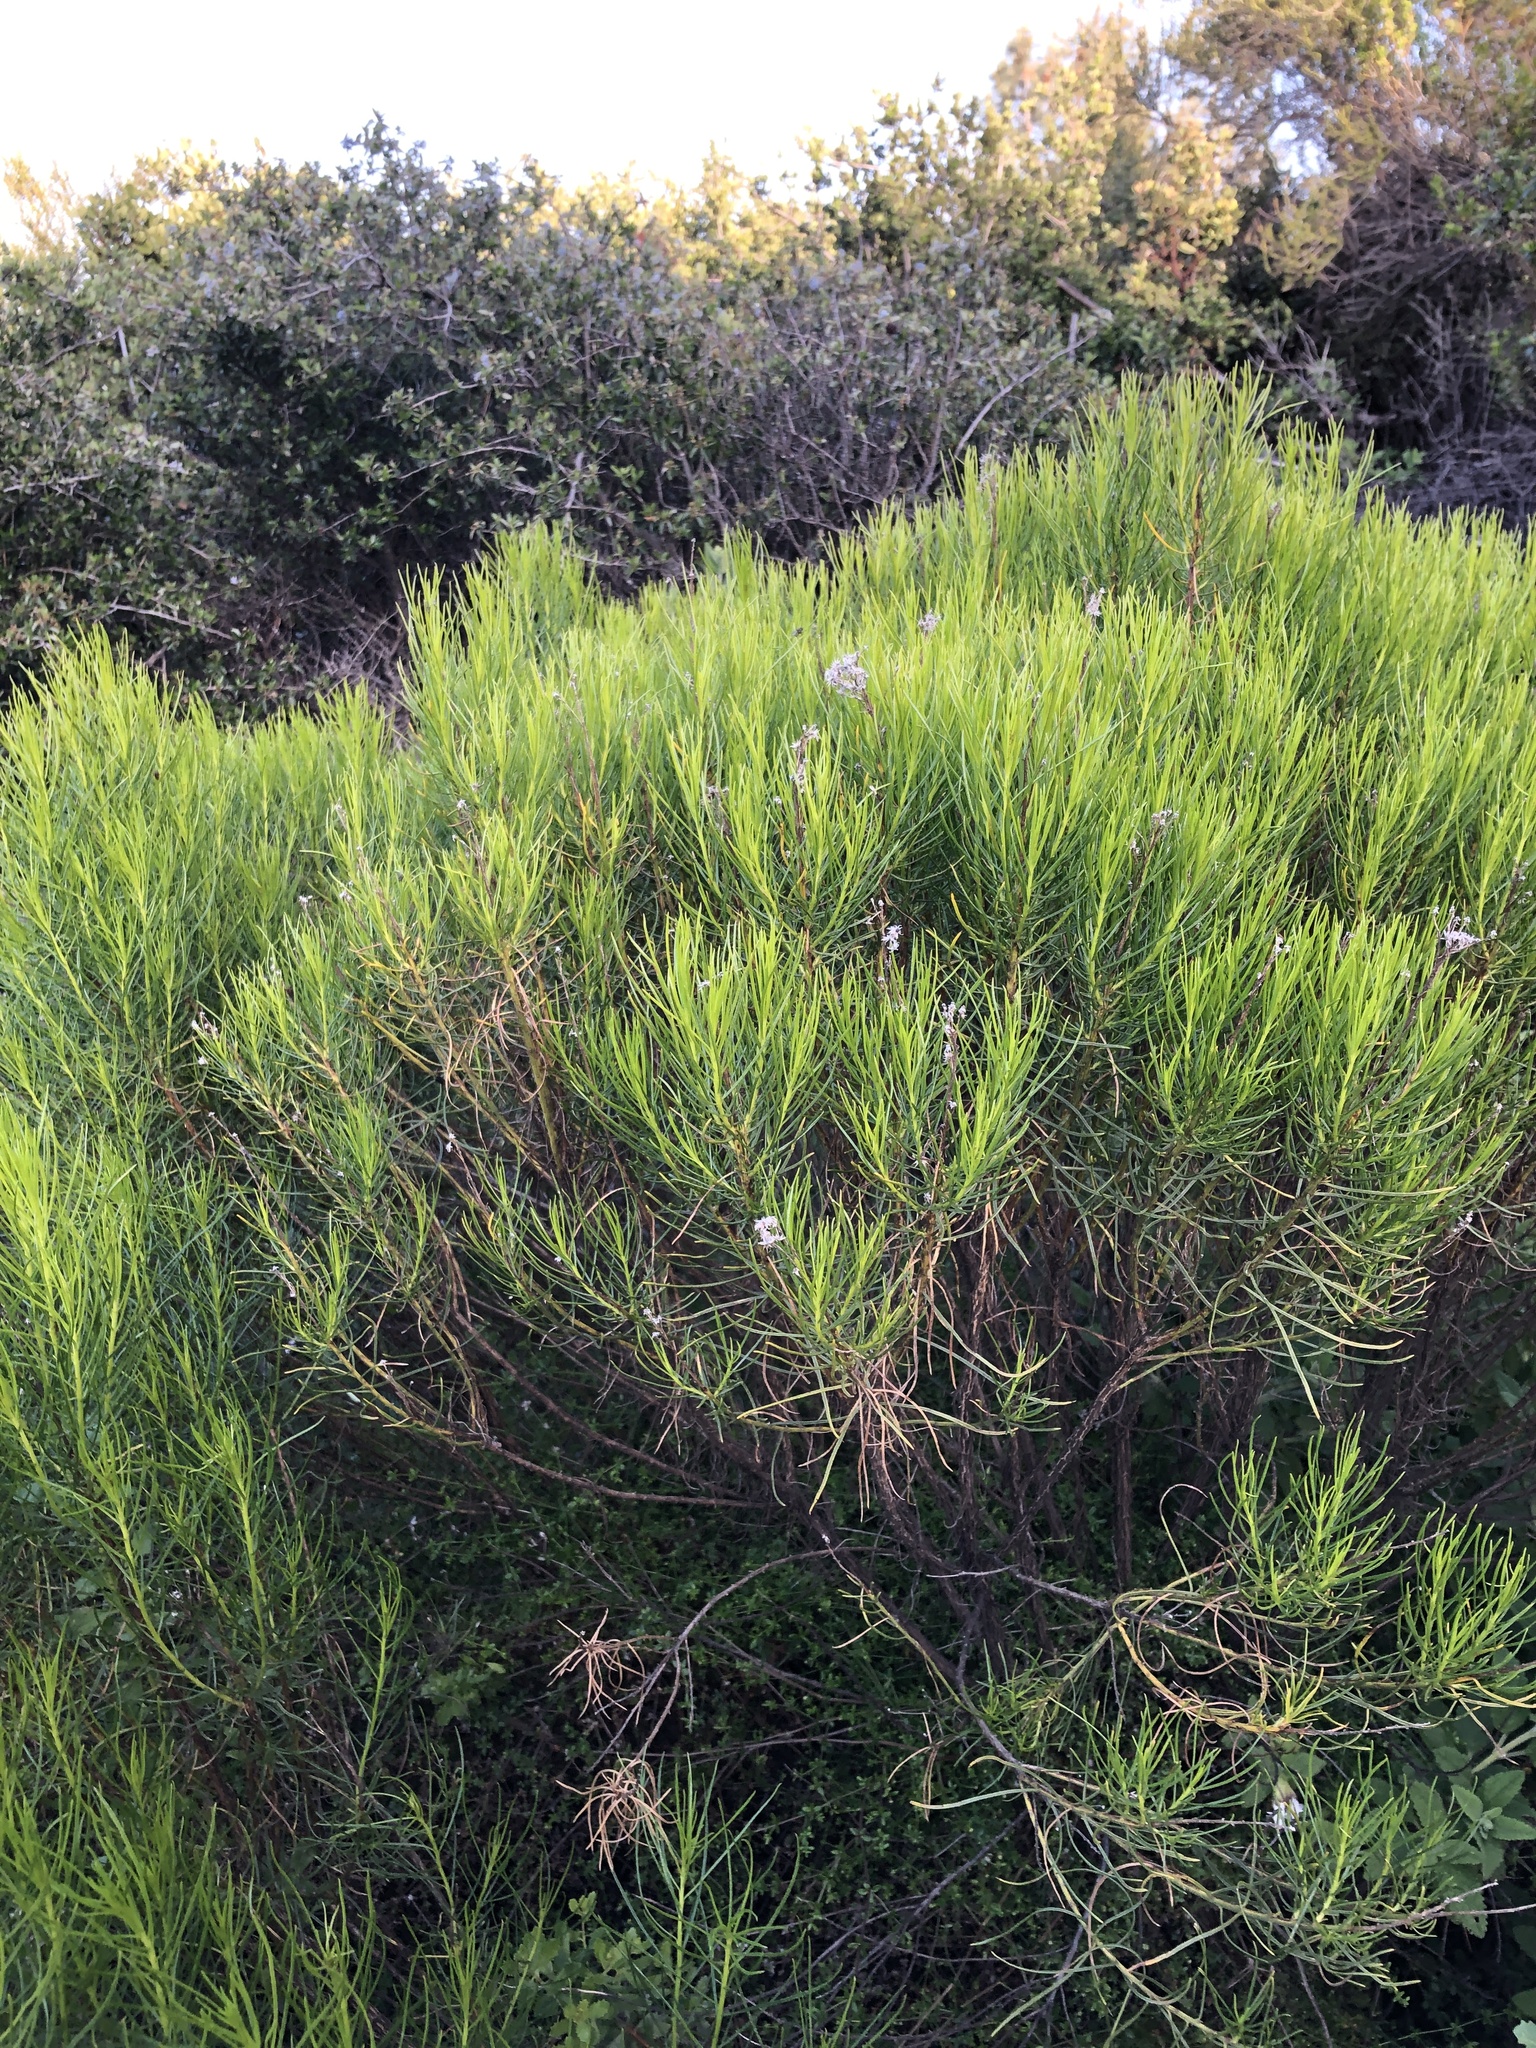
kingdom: Plantae
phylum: Tracheophyta
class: Magnoliopsida
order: Asterales
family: Asteraceae
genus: Ericameria
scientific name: Ericameria arborescens
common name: Goldenfleece
